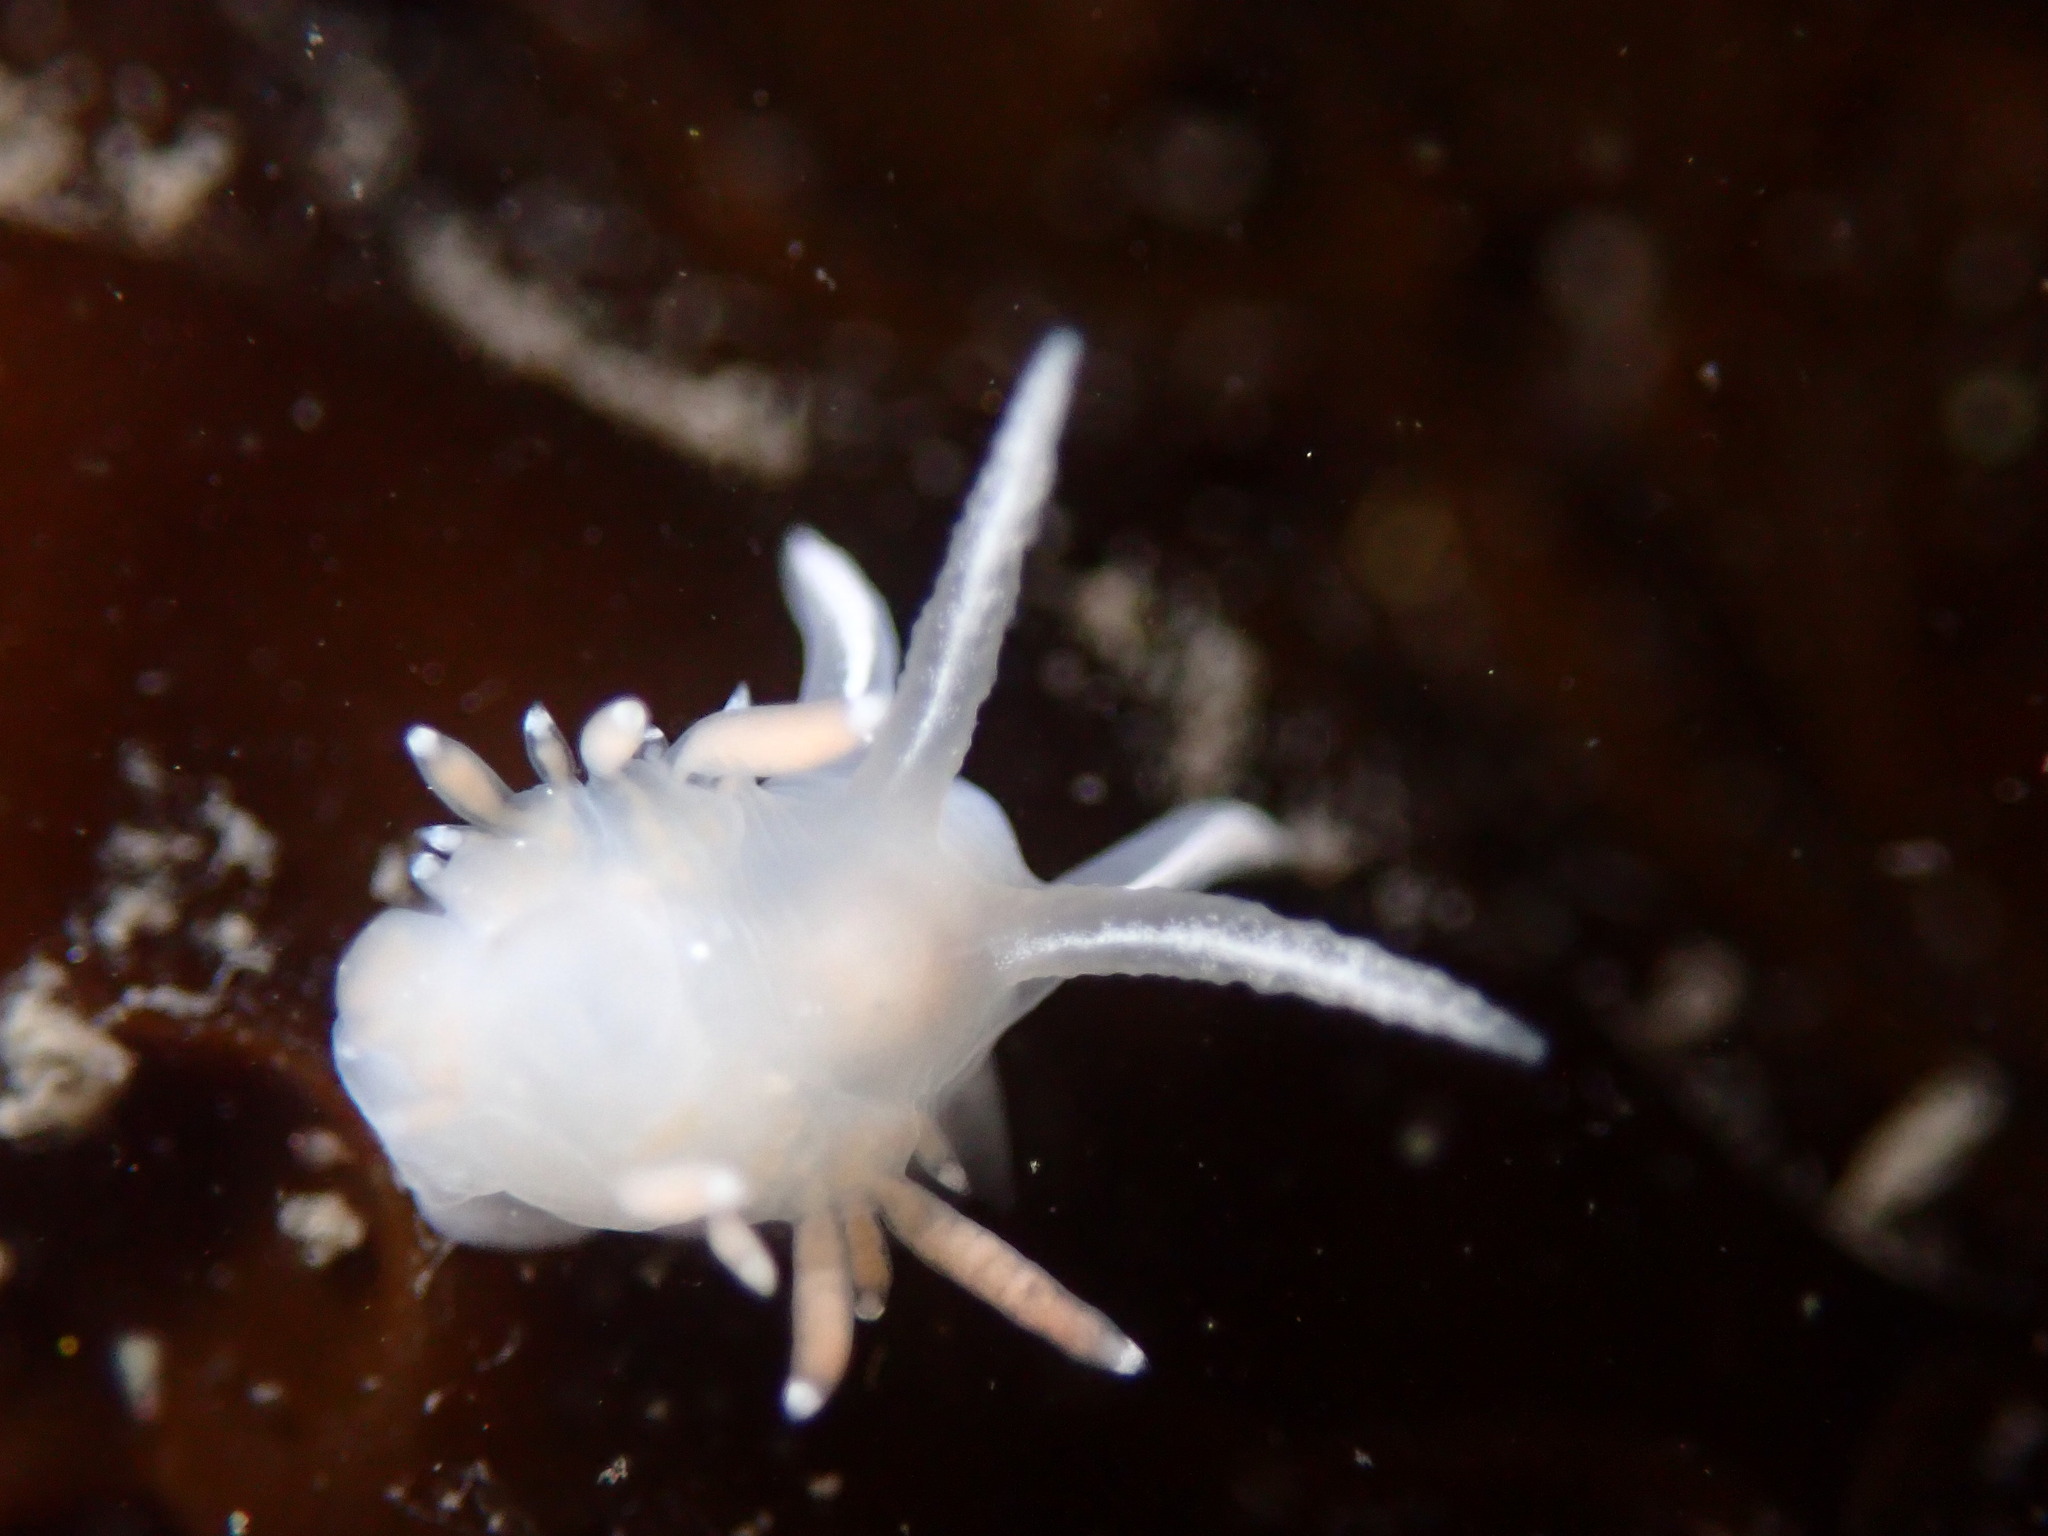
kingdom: Animalia
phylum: Mollusca
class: Gastropoda
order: Nudibranchia
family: Coryphellidae
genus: Coryphella
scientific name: Coryphella verrucosa
